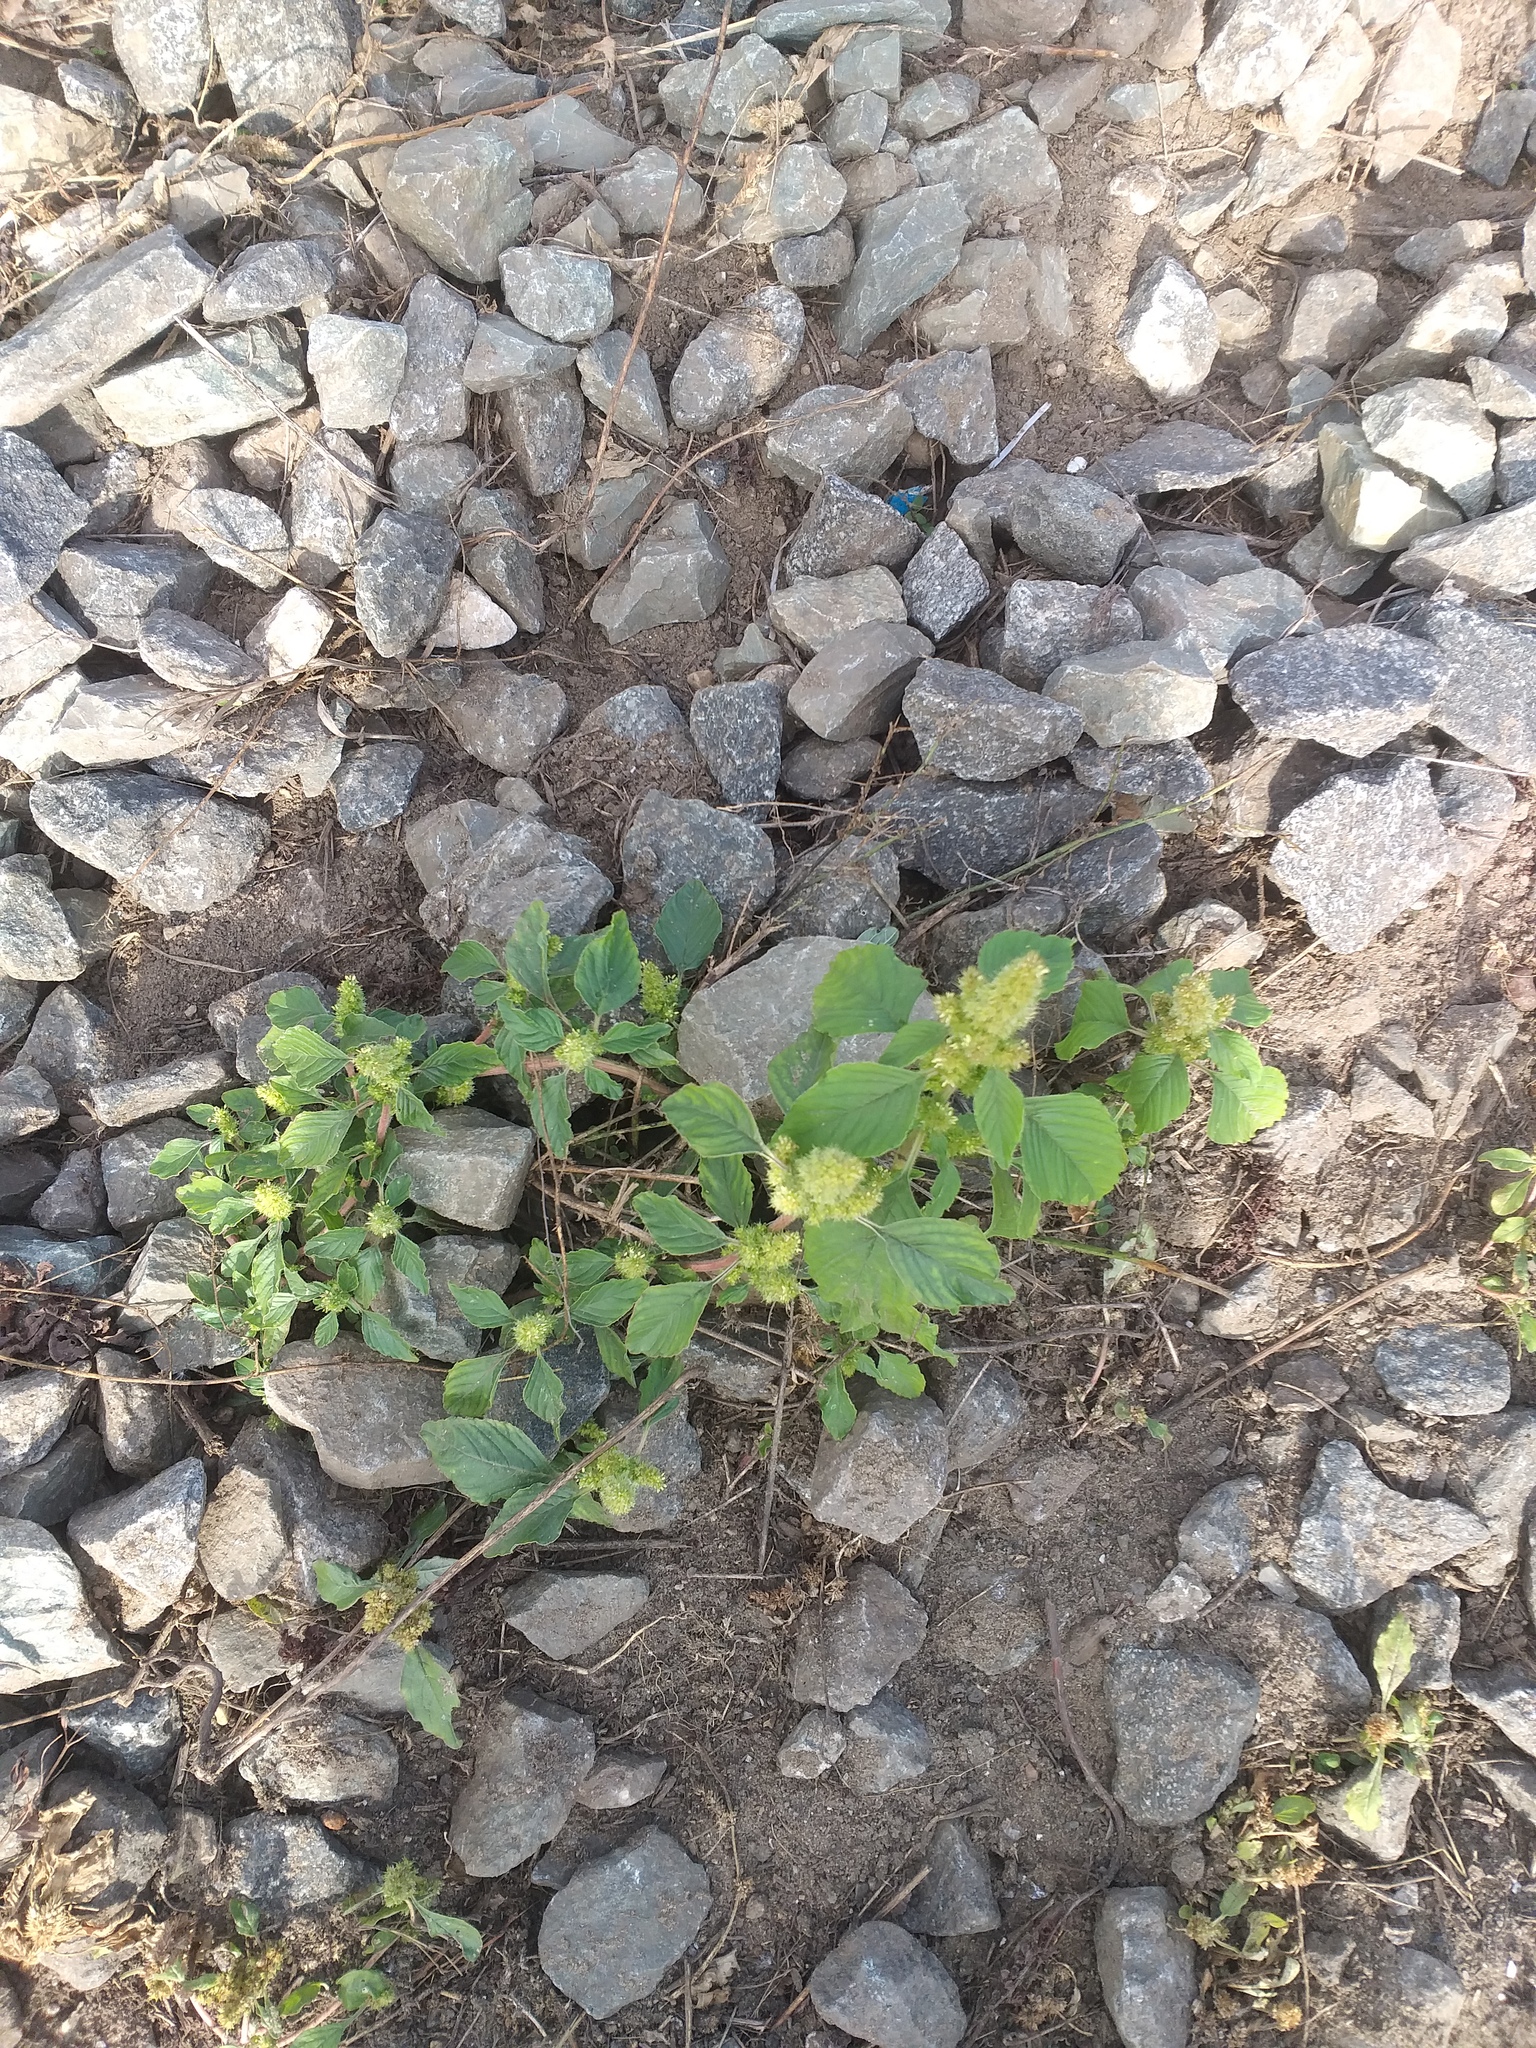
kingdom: Plantae
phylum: Tracheophyta
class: Magnoliopsida
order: Caryophyllales
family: Amaranthaceae
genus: Amaranthus
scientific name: Amaranthus retroflexus
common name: Redroot amaranth
